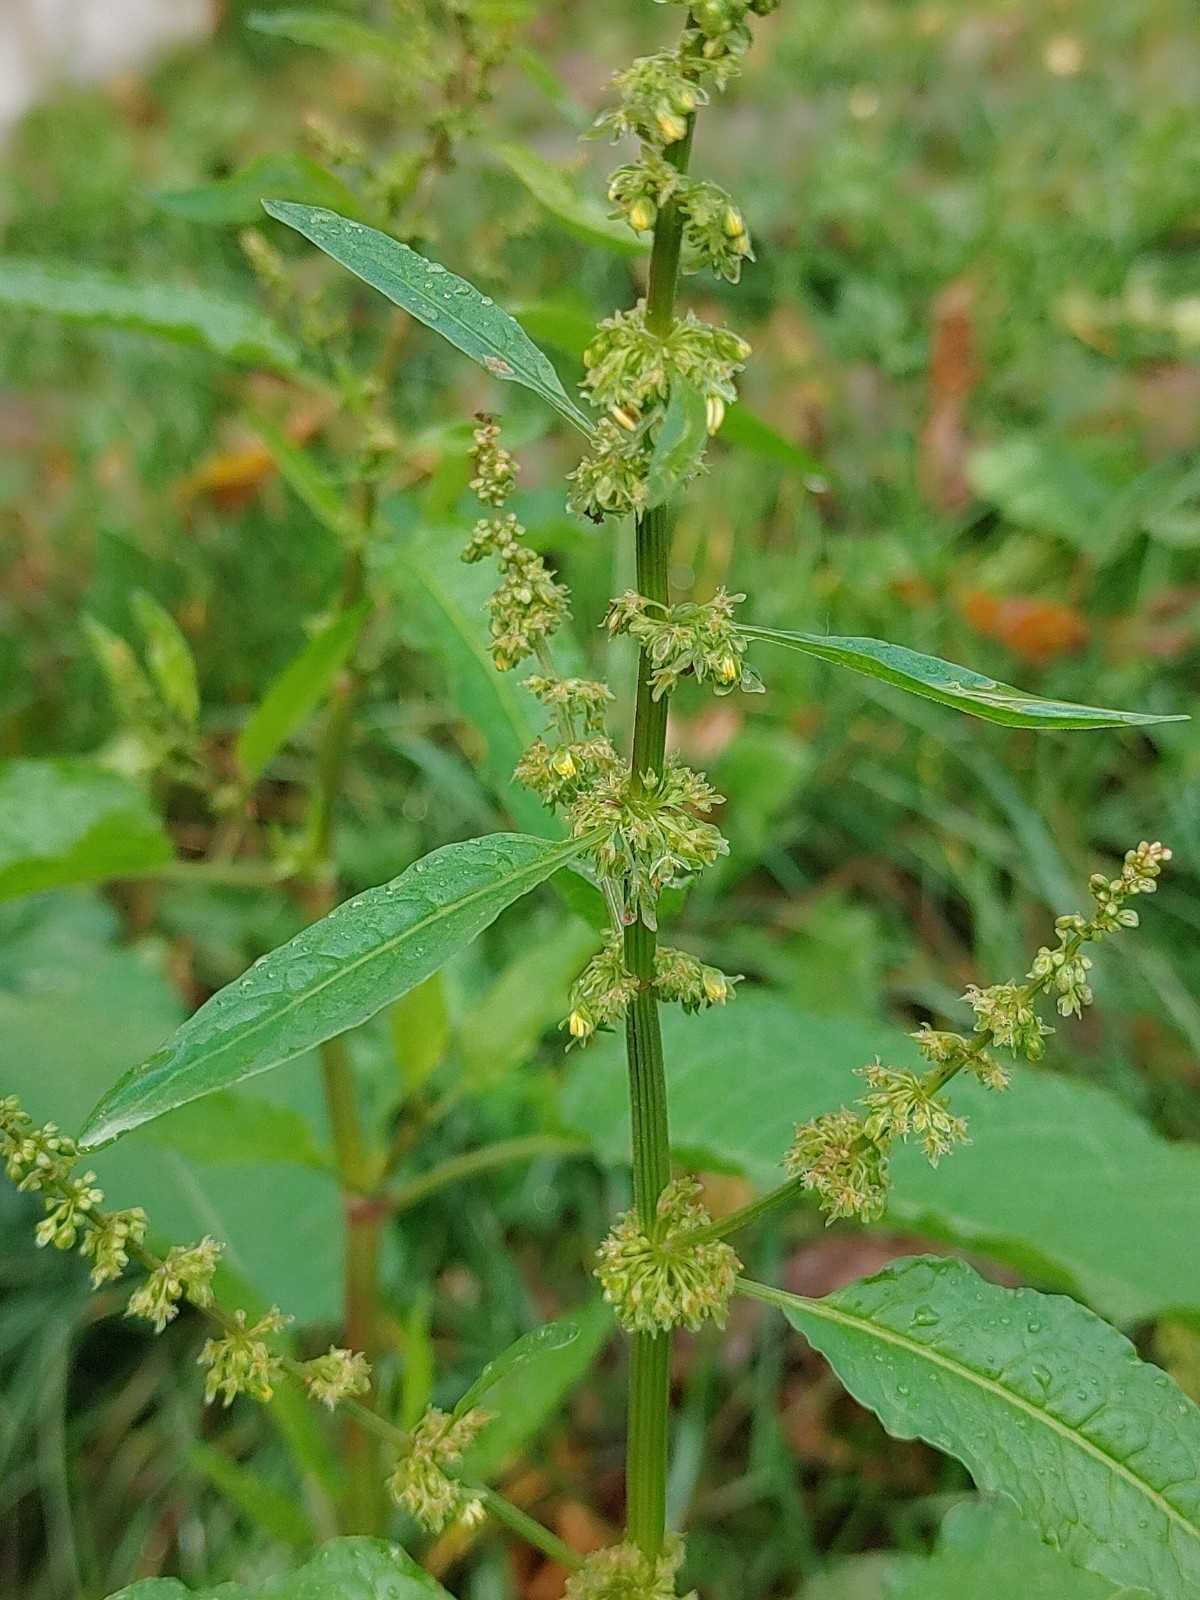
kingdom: Plantae
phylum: Tracheophyta
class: Magnoliopsida
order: Caryophyllales
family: Polygonaceae
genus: Rumex
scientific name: Rumex obtusifolius
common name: Bitter dock
